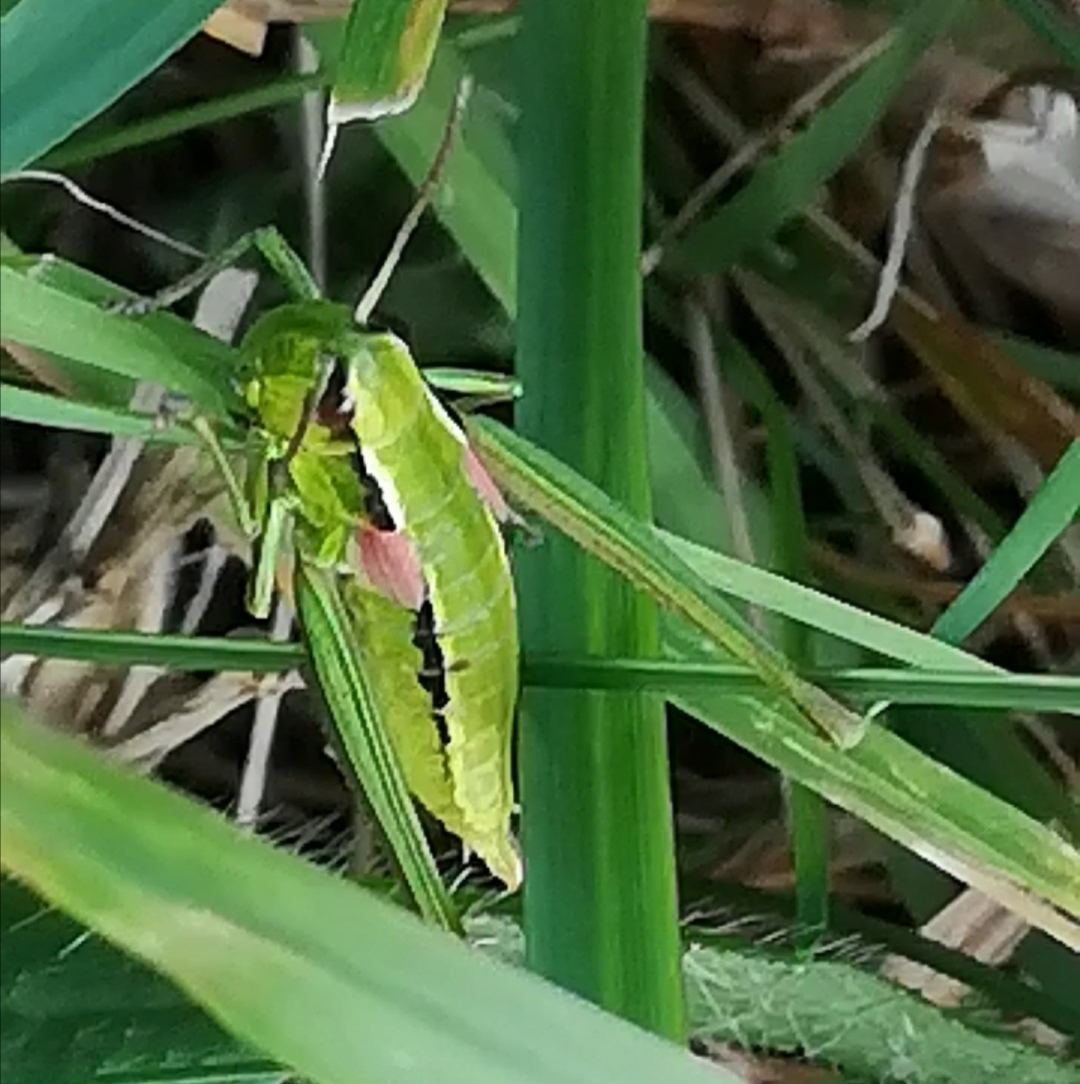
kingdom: Animalia
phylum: Arthropoda
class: Insecta
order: Orthoptera
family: Acrididae
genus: Euthystira
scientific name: Euthystira brachyptera
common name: Small gold grasshopper
